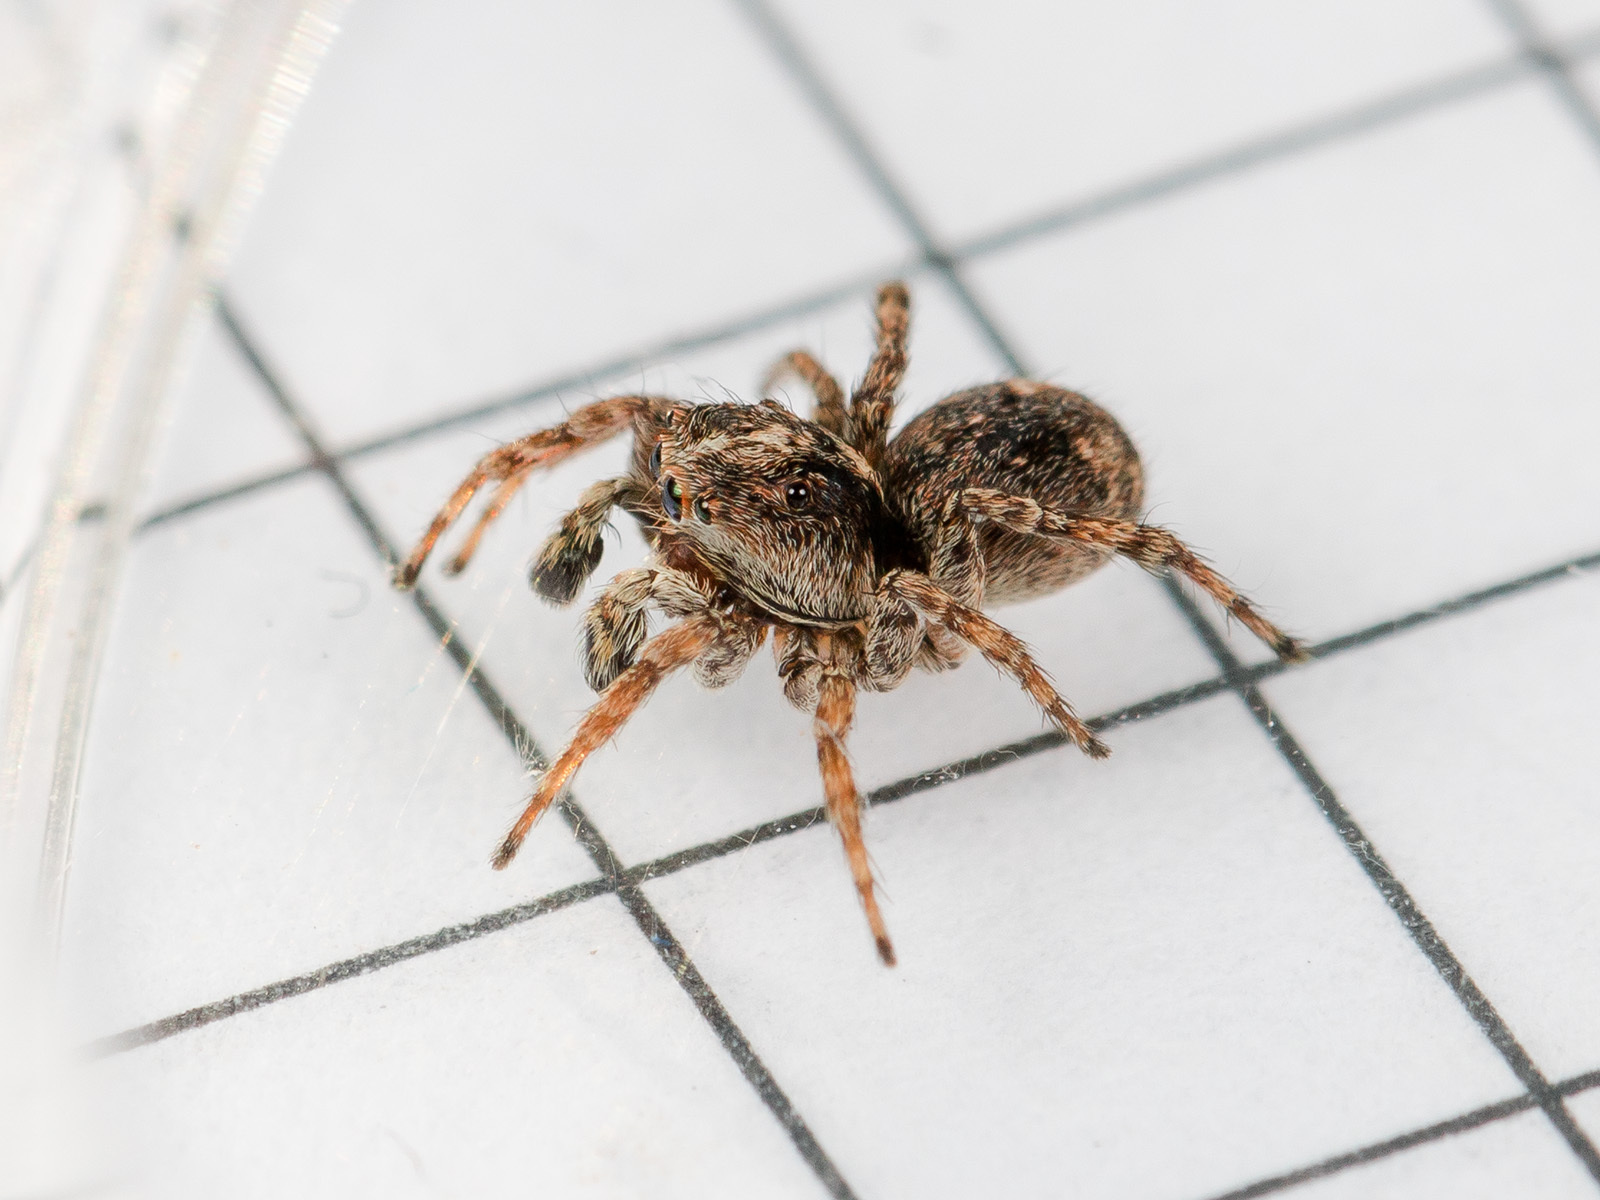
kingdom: Animalia
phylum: Arthropoda
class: Arachnida
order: Araneae
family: Salticidae
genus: Attulus
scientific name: Attulus fasciger
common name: Asiatic wall jumping spider
